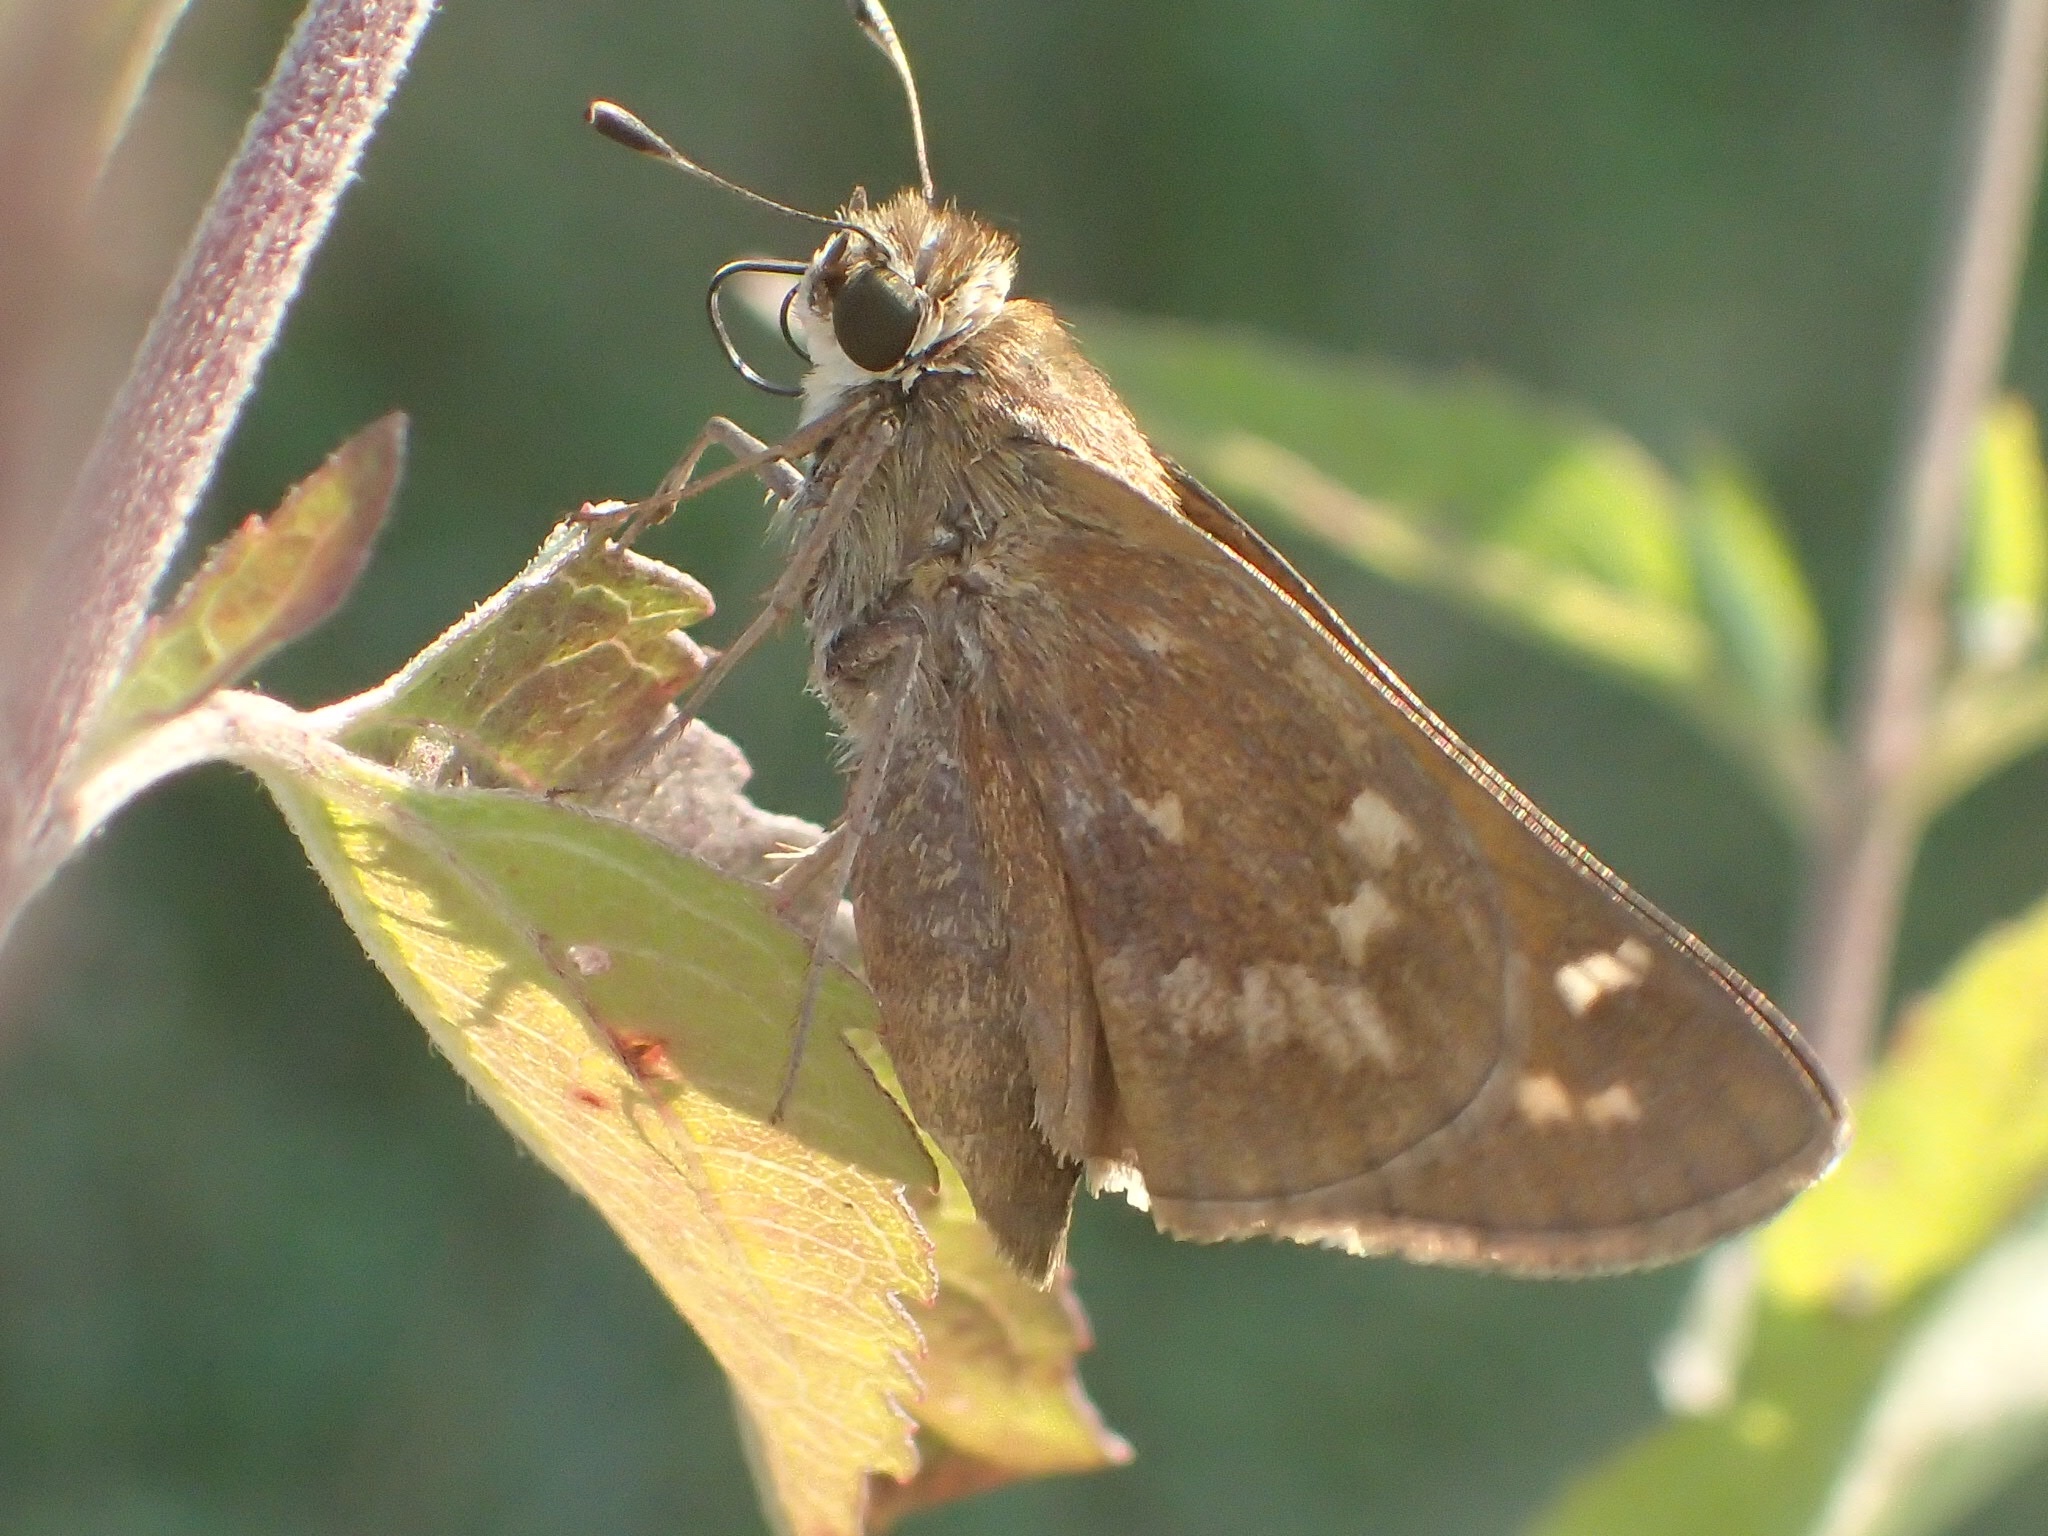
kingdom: Animalia
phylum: Arthropoda
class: Insecta
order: Lepidoptera
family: Hesperiidae
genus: Atalopedes
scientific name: Atalopedes
